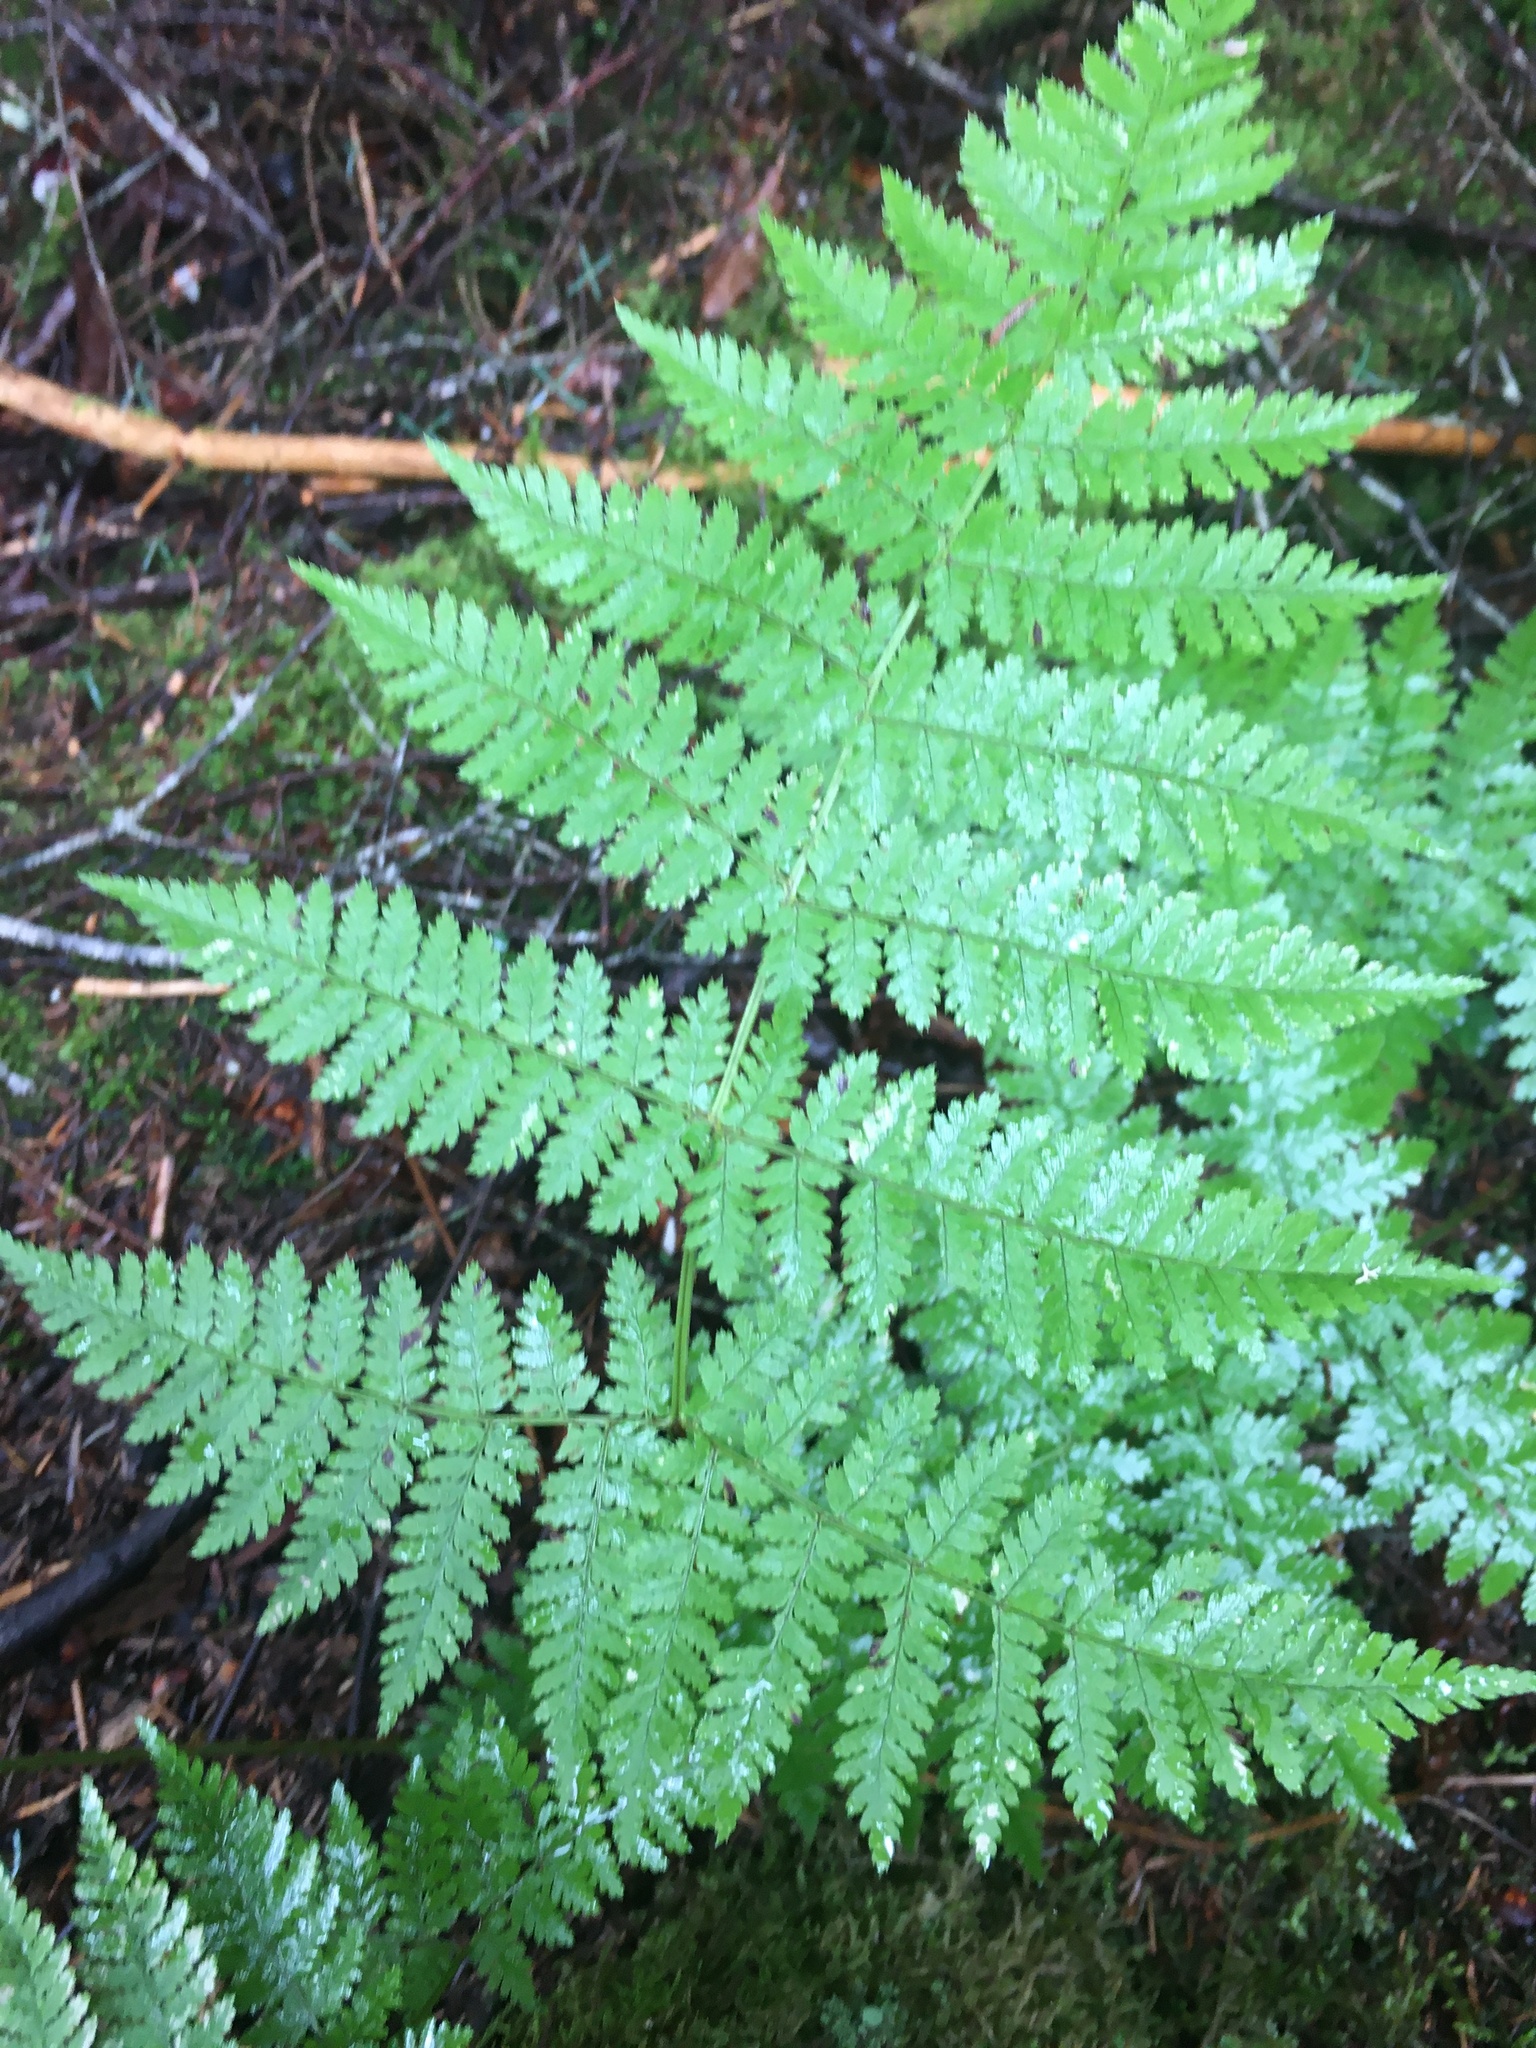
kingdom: Plantae
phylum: Tracheophyta
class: Polypodiopsida
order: Polypodiales
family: Dryopteridaceae
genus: Dryopteris
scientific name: Dryopteris campyloptera
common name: Mountain wood fern
